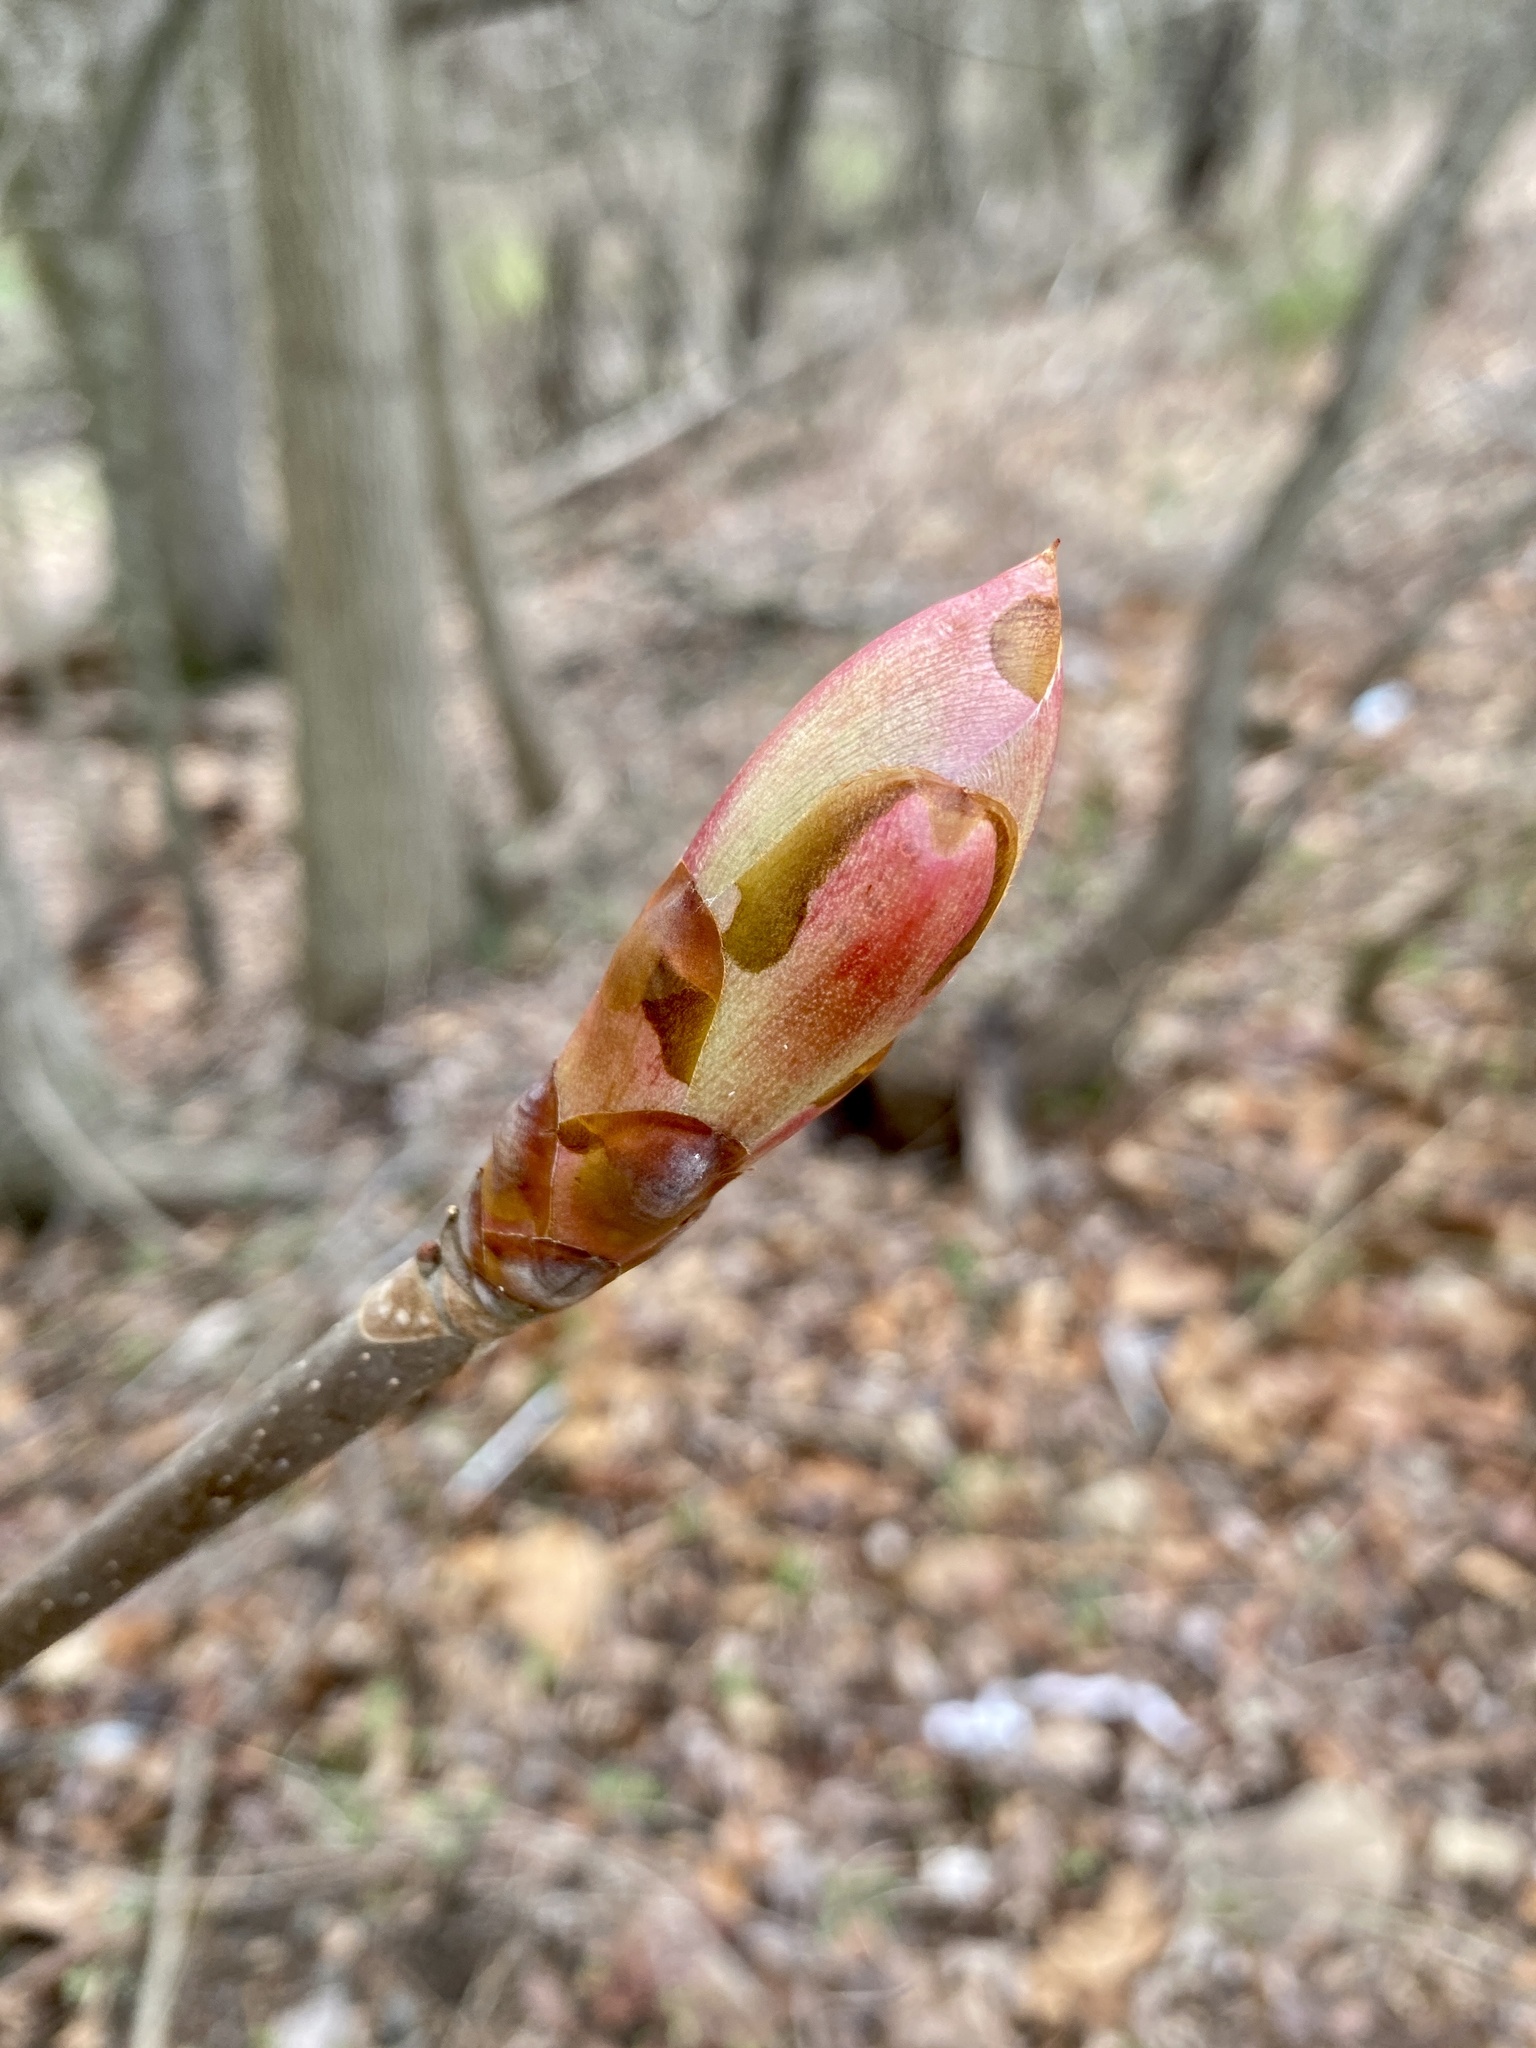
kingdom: Plantae
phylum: Tracheophyta
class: Magnoliopsida
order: Sapindales
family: Sapindaceae
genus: Aesculus
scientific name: Aesculus flava
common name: Yellow buckeye
